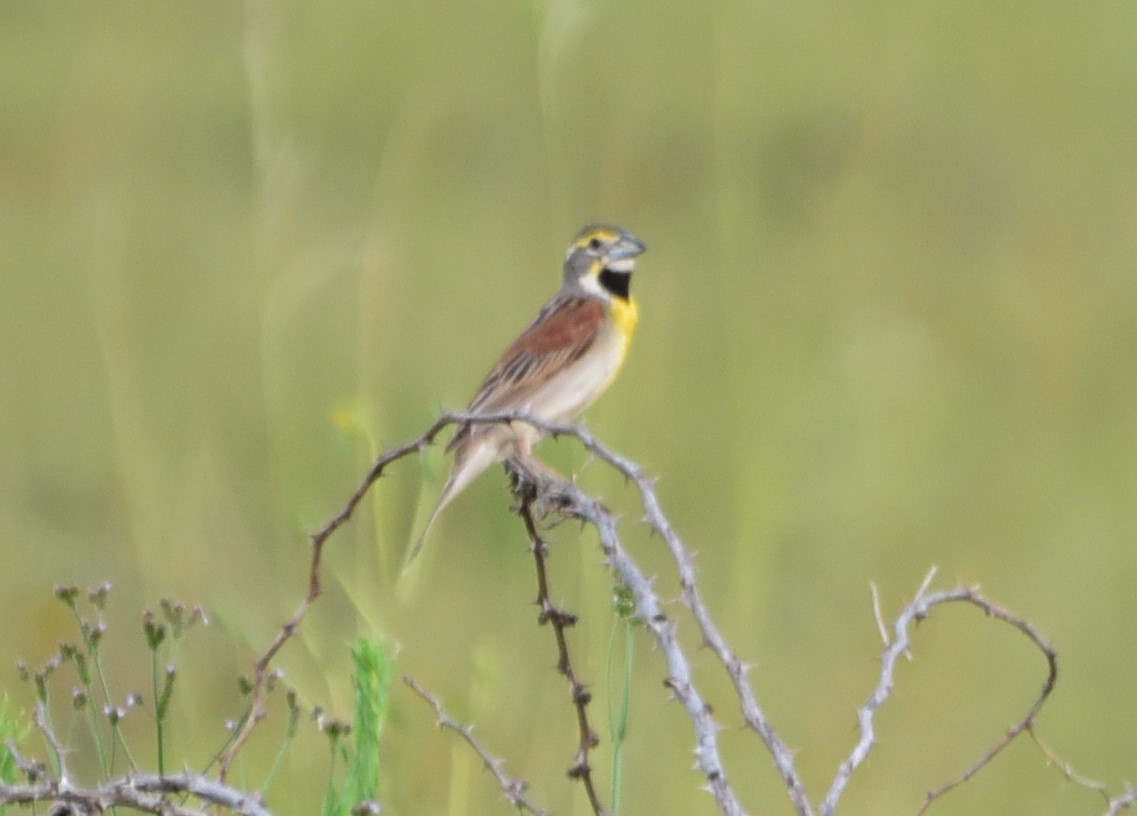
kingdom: Animalia
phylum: Chordata
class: Aves
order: Passeriformes
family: Cardinalidae
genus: Spiza
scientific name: Spiza americana
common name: Dickcissel
